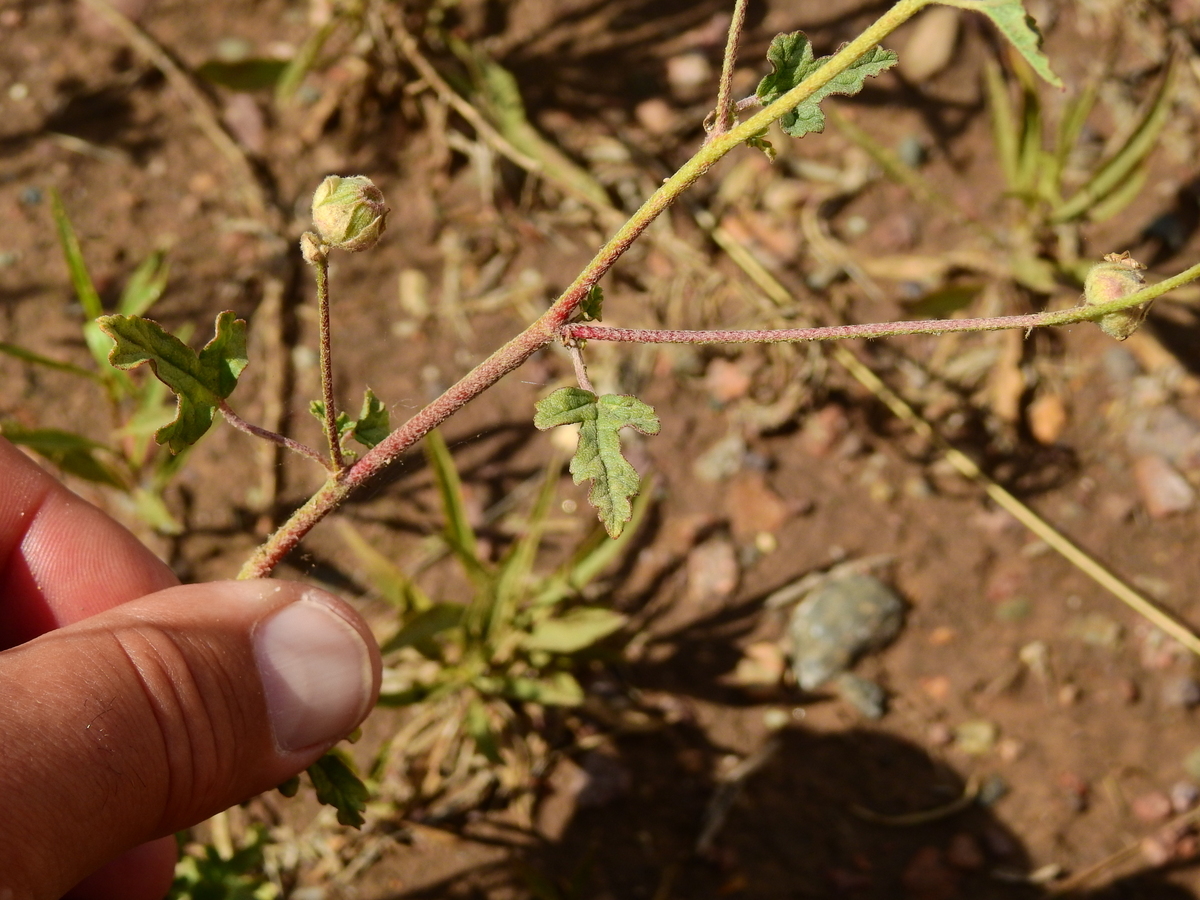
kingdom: Plantae
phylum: Tracheophyta
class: Magnoliopsida
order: Malvales
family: Malvaceae
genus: Sphaeralcea
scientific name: Sphaeralcea miniata
